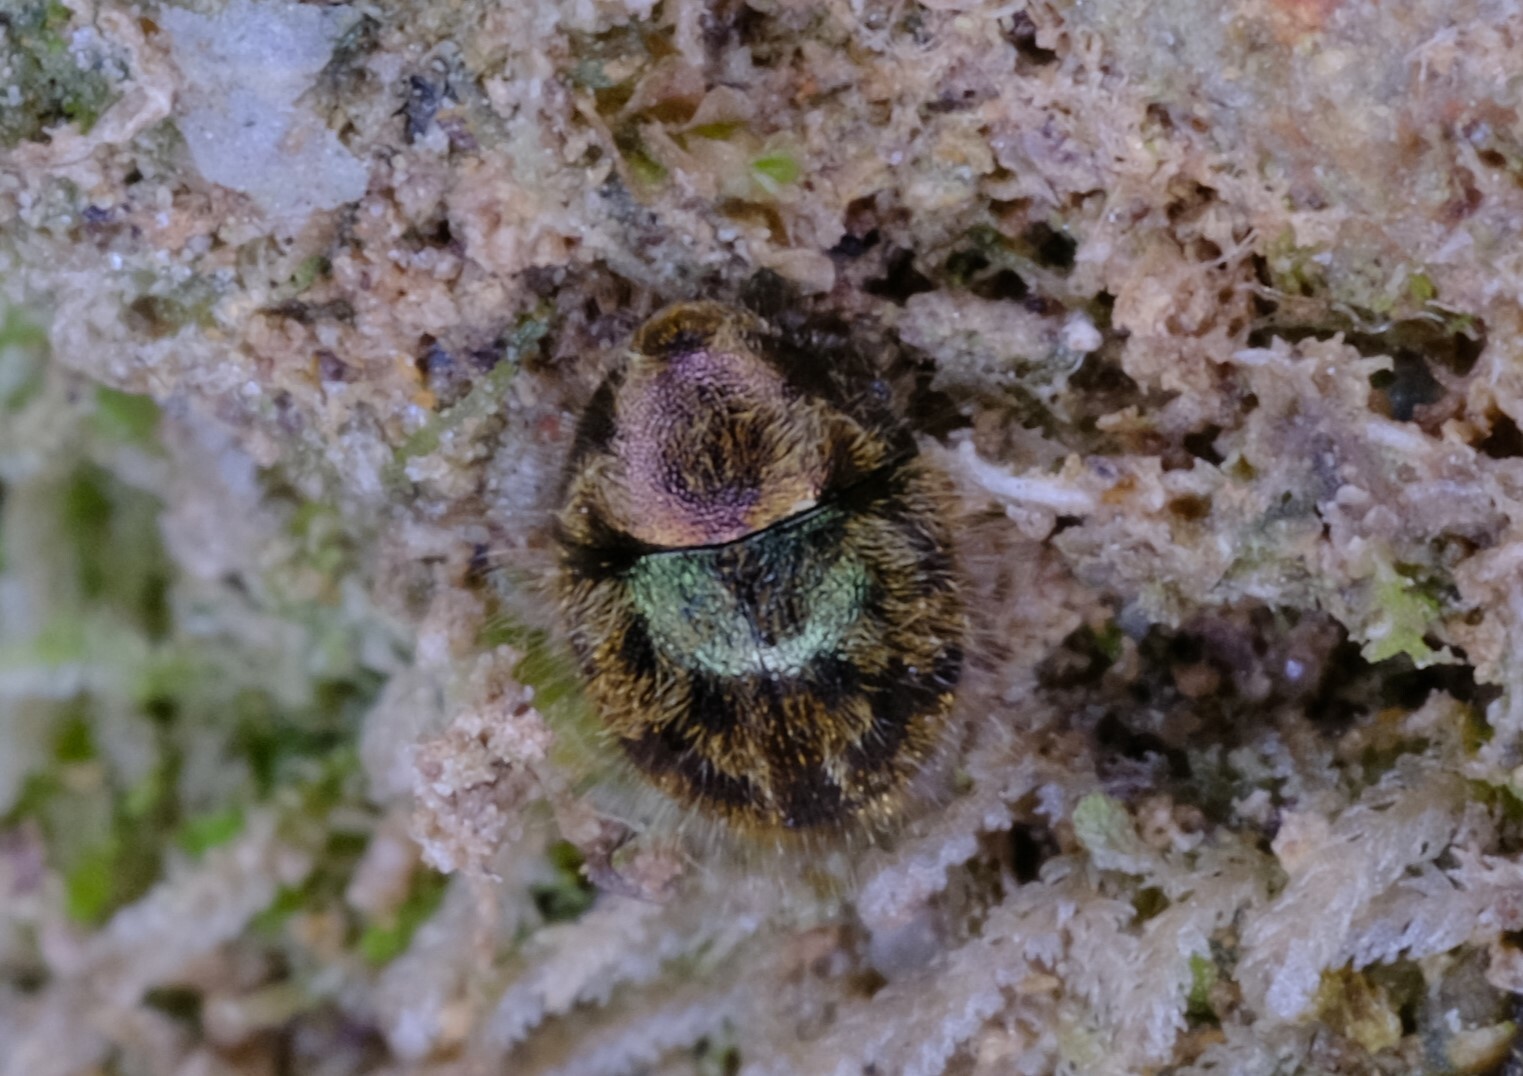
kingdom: Animalia
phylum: Arthropoda
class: Insecta
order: Coleoptera
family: Byrrhidae
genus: Akidomorychus
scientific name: Akidomorychus
